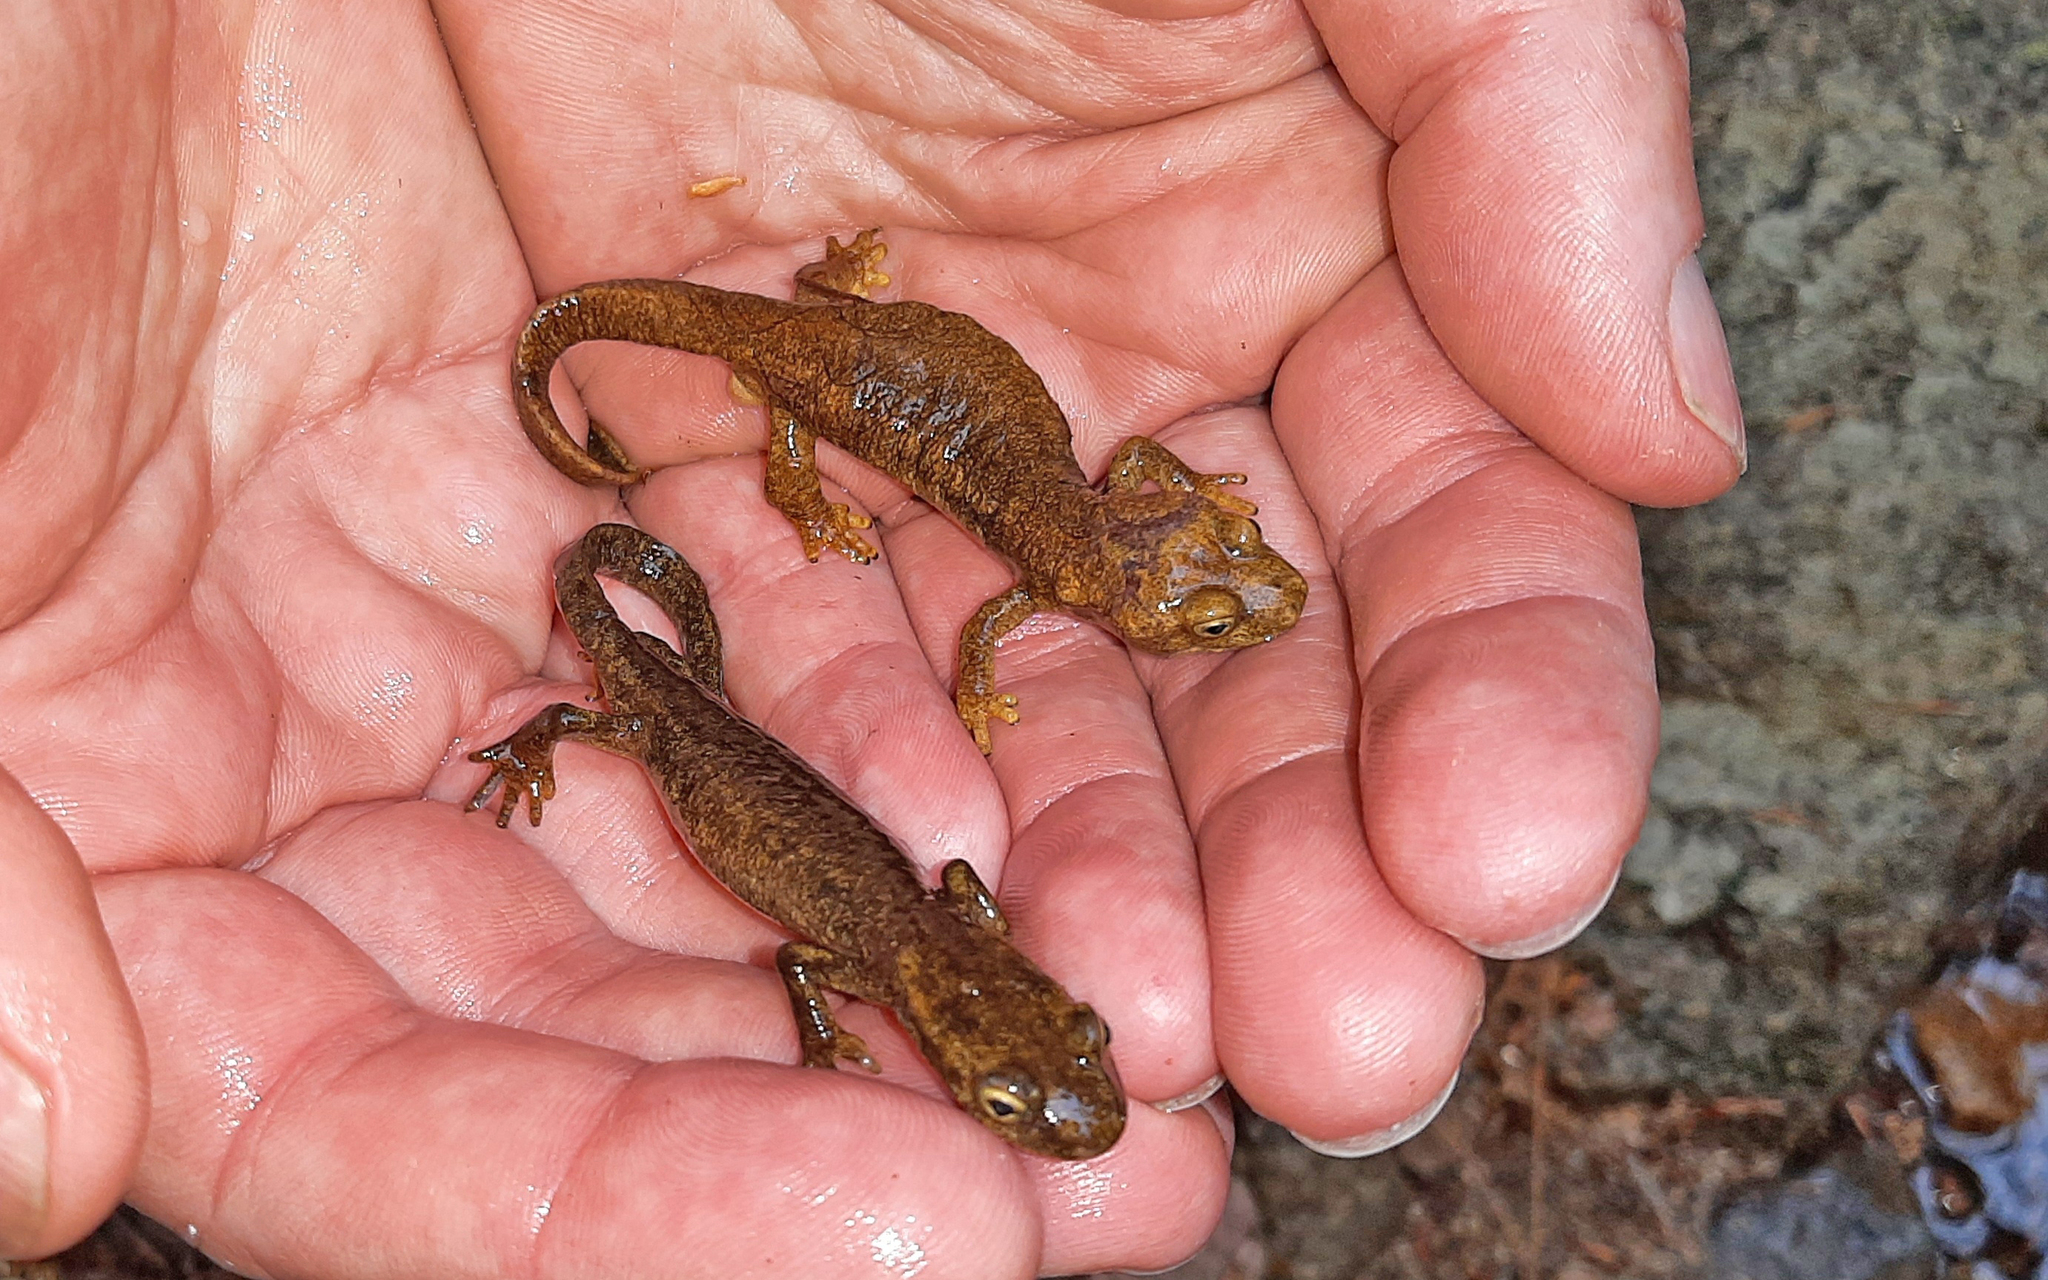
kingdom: Animalia
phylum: Chordata
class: Amphibia
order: Caudata
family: Salamandridae
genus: Euproctus
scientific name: Euproctus montanus
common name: Corsican brook salamander
